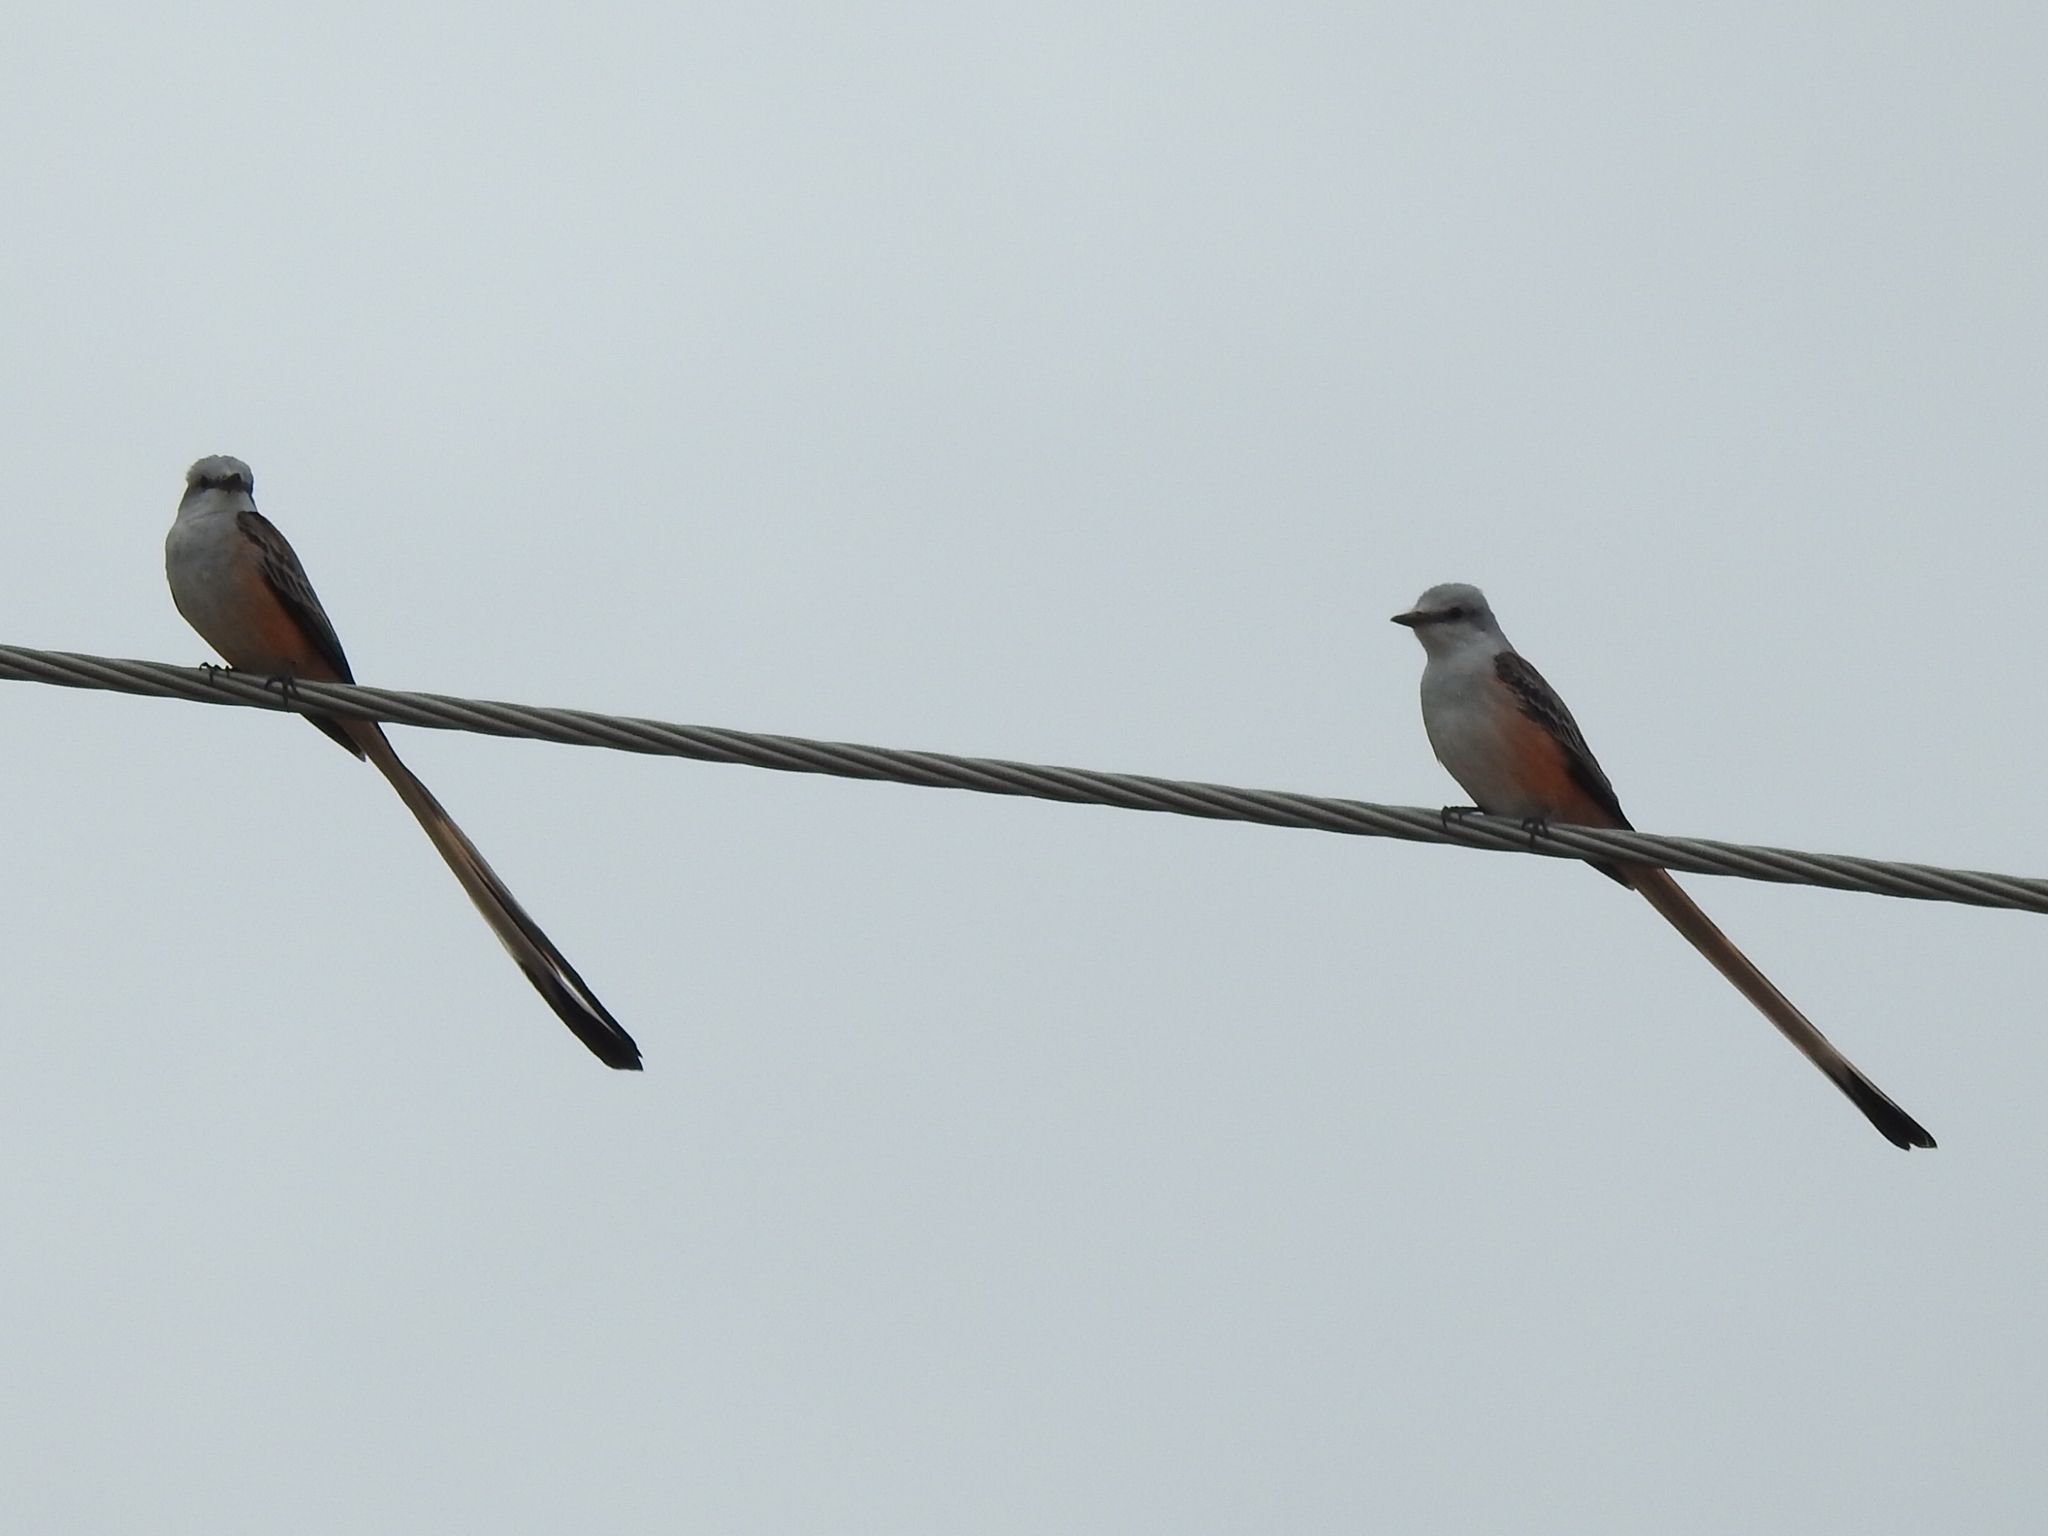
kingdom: Animalia
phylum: Chordata
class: Aves
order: Passeriformes
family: Tyrannidae
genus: Tyrannus
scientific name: Tyrannus forficatus
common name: Scissor-tailed flycatcher
